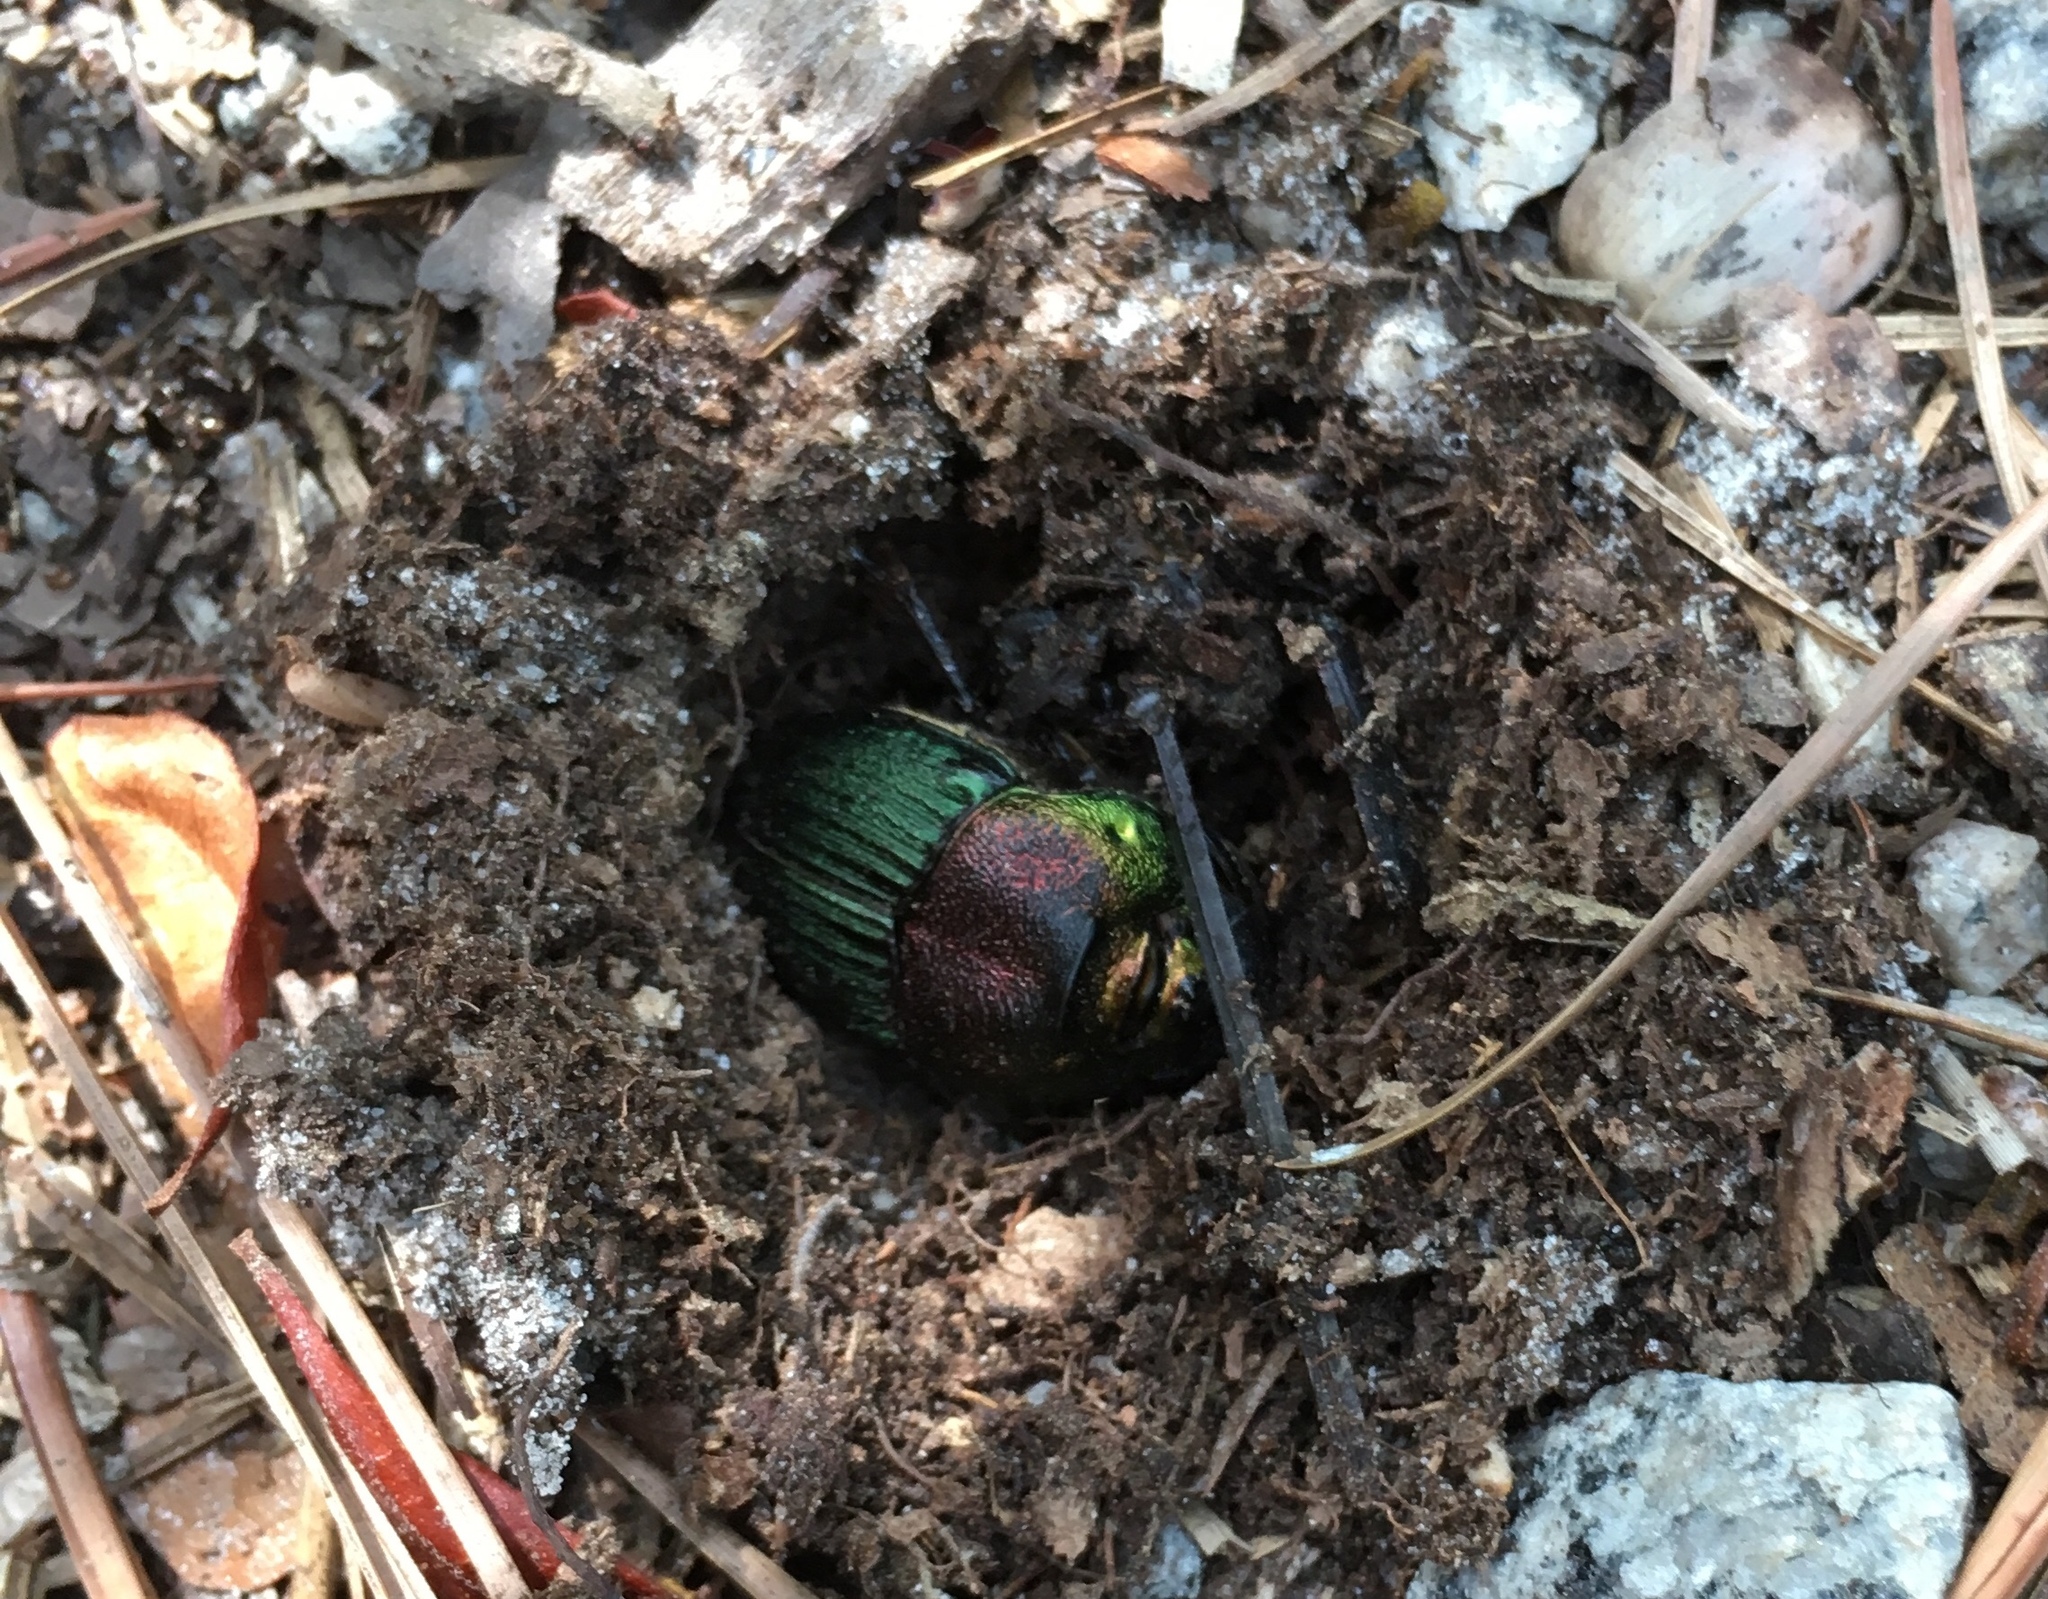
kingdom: Animalia
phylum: Arthropoda
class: Insecta
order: Coleoptera
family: Scarabaeidae
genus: Phanaeus
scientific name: Phanaeus vindex
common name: Rainbow scarab
